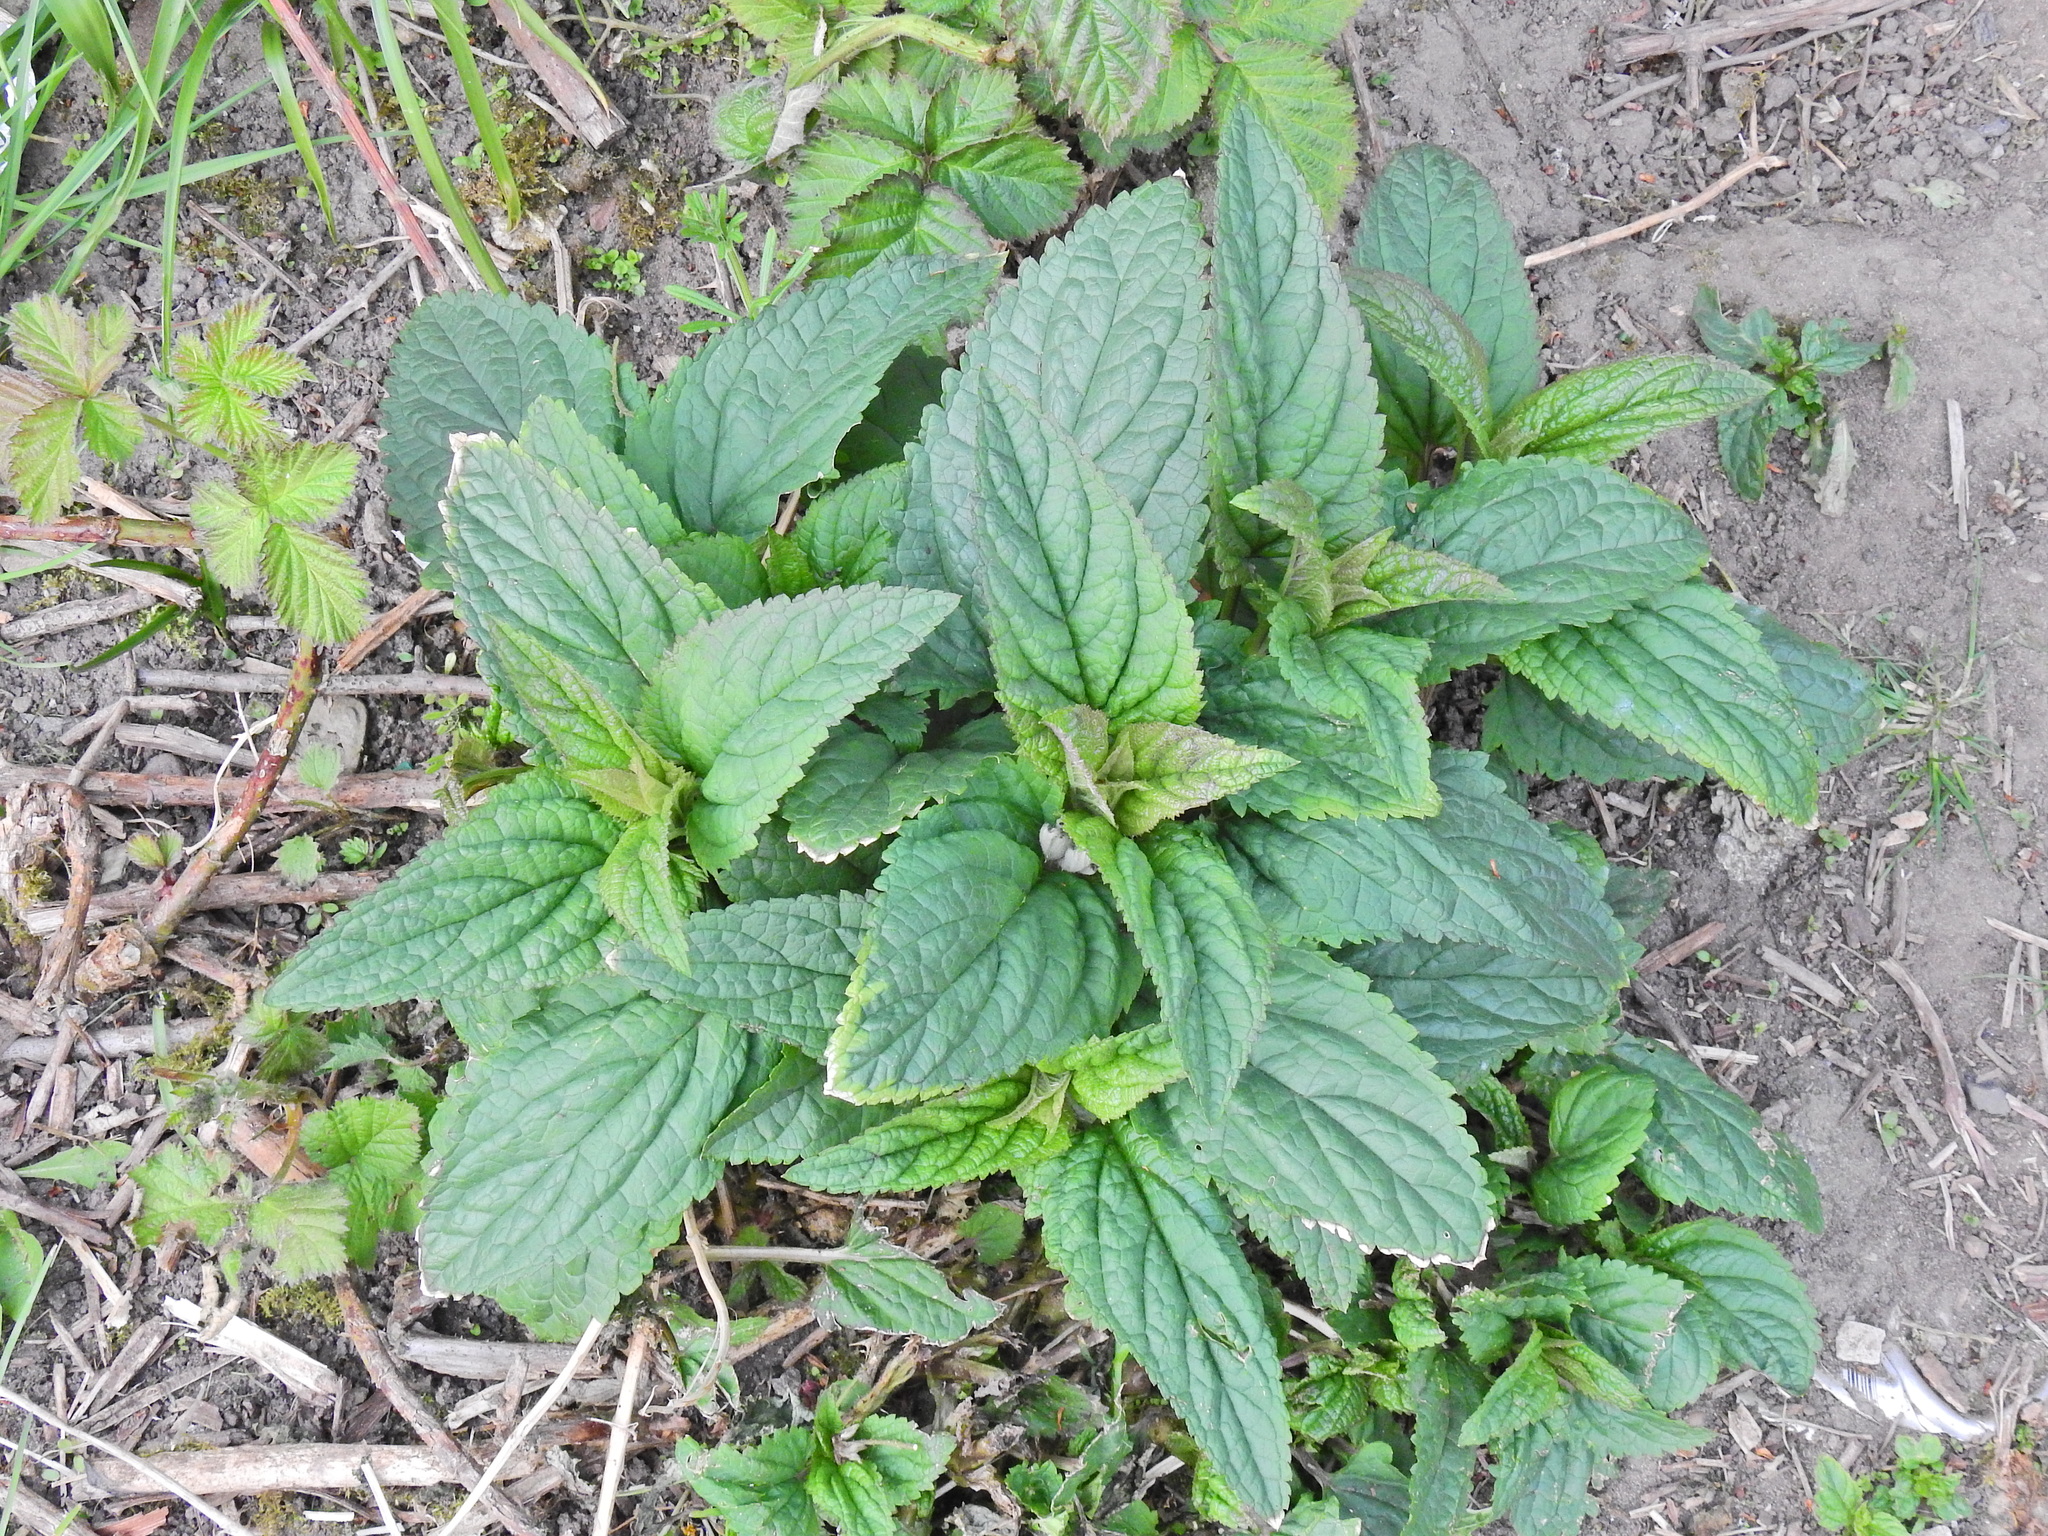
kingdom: Plantae
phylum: Tracheophyta
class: Magnoliopsida
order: Lamiales
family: Scrophulariaceae
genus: Scrophularia
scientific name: Scrophularia nodosa
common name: Common figwort
